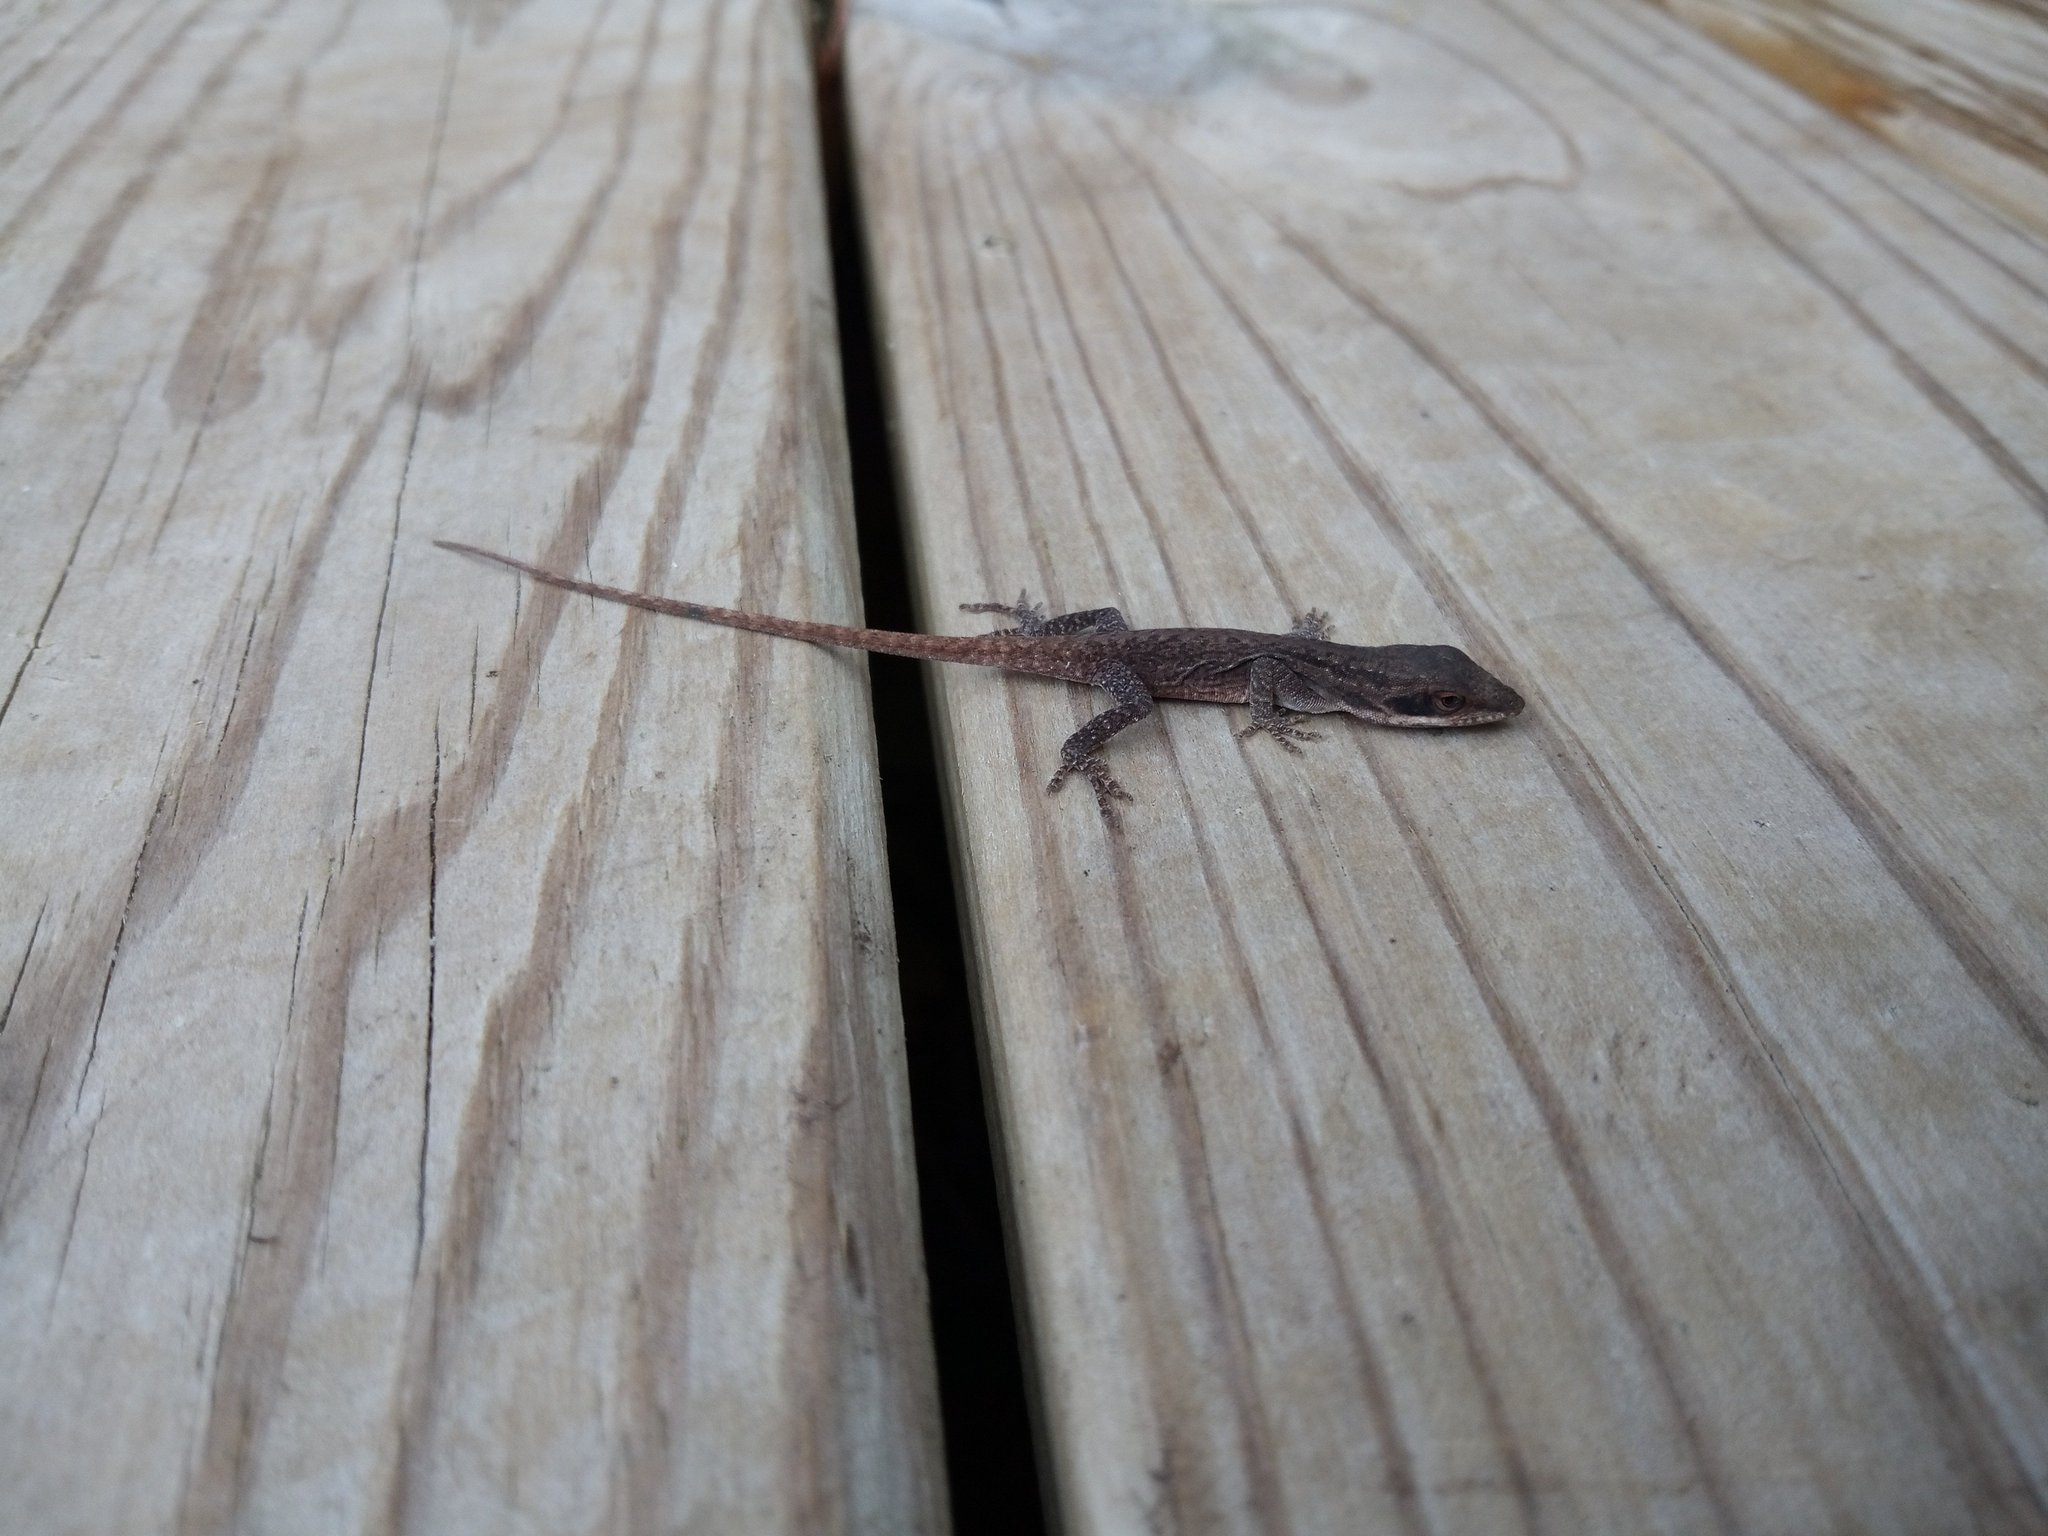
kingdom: Animalia
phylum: Chordata
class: Squamata
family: Dactyloidae
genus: Anolis
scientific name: Anolis carolinensis
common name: Green anole
